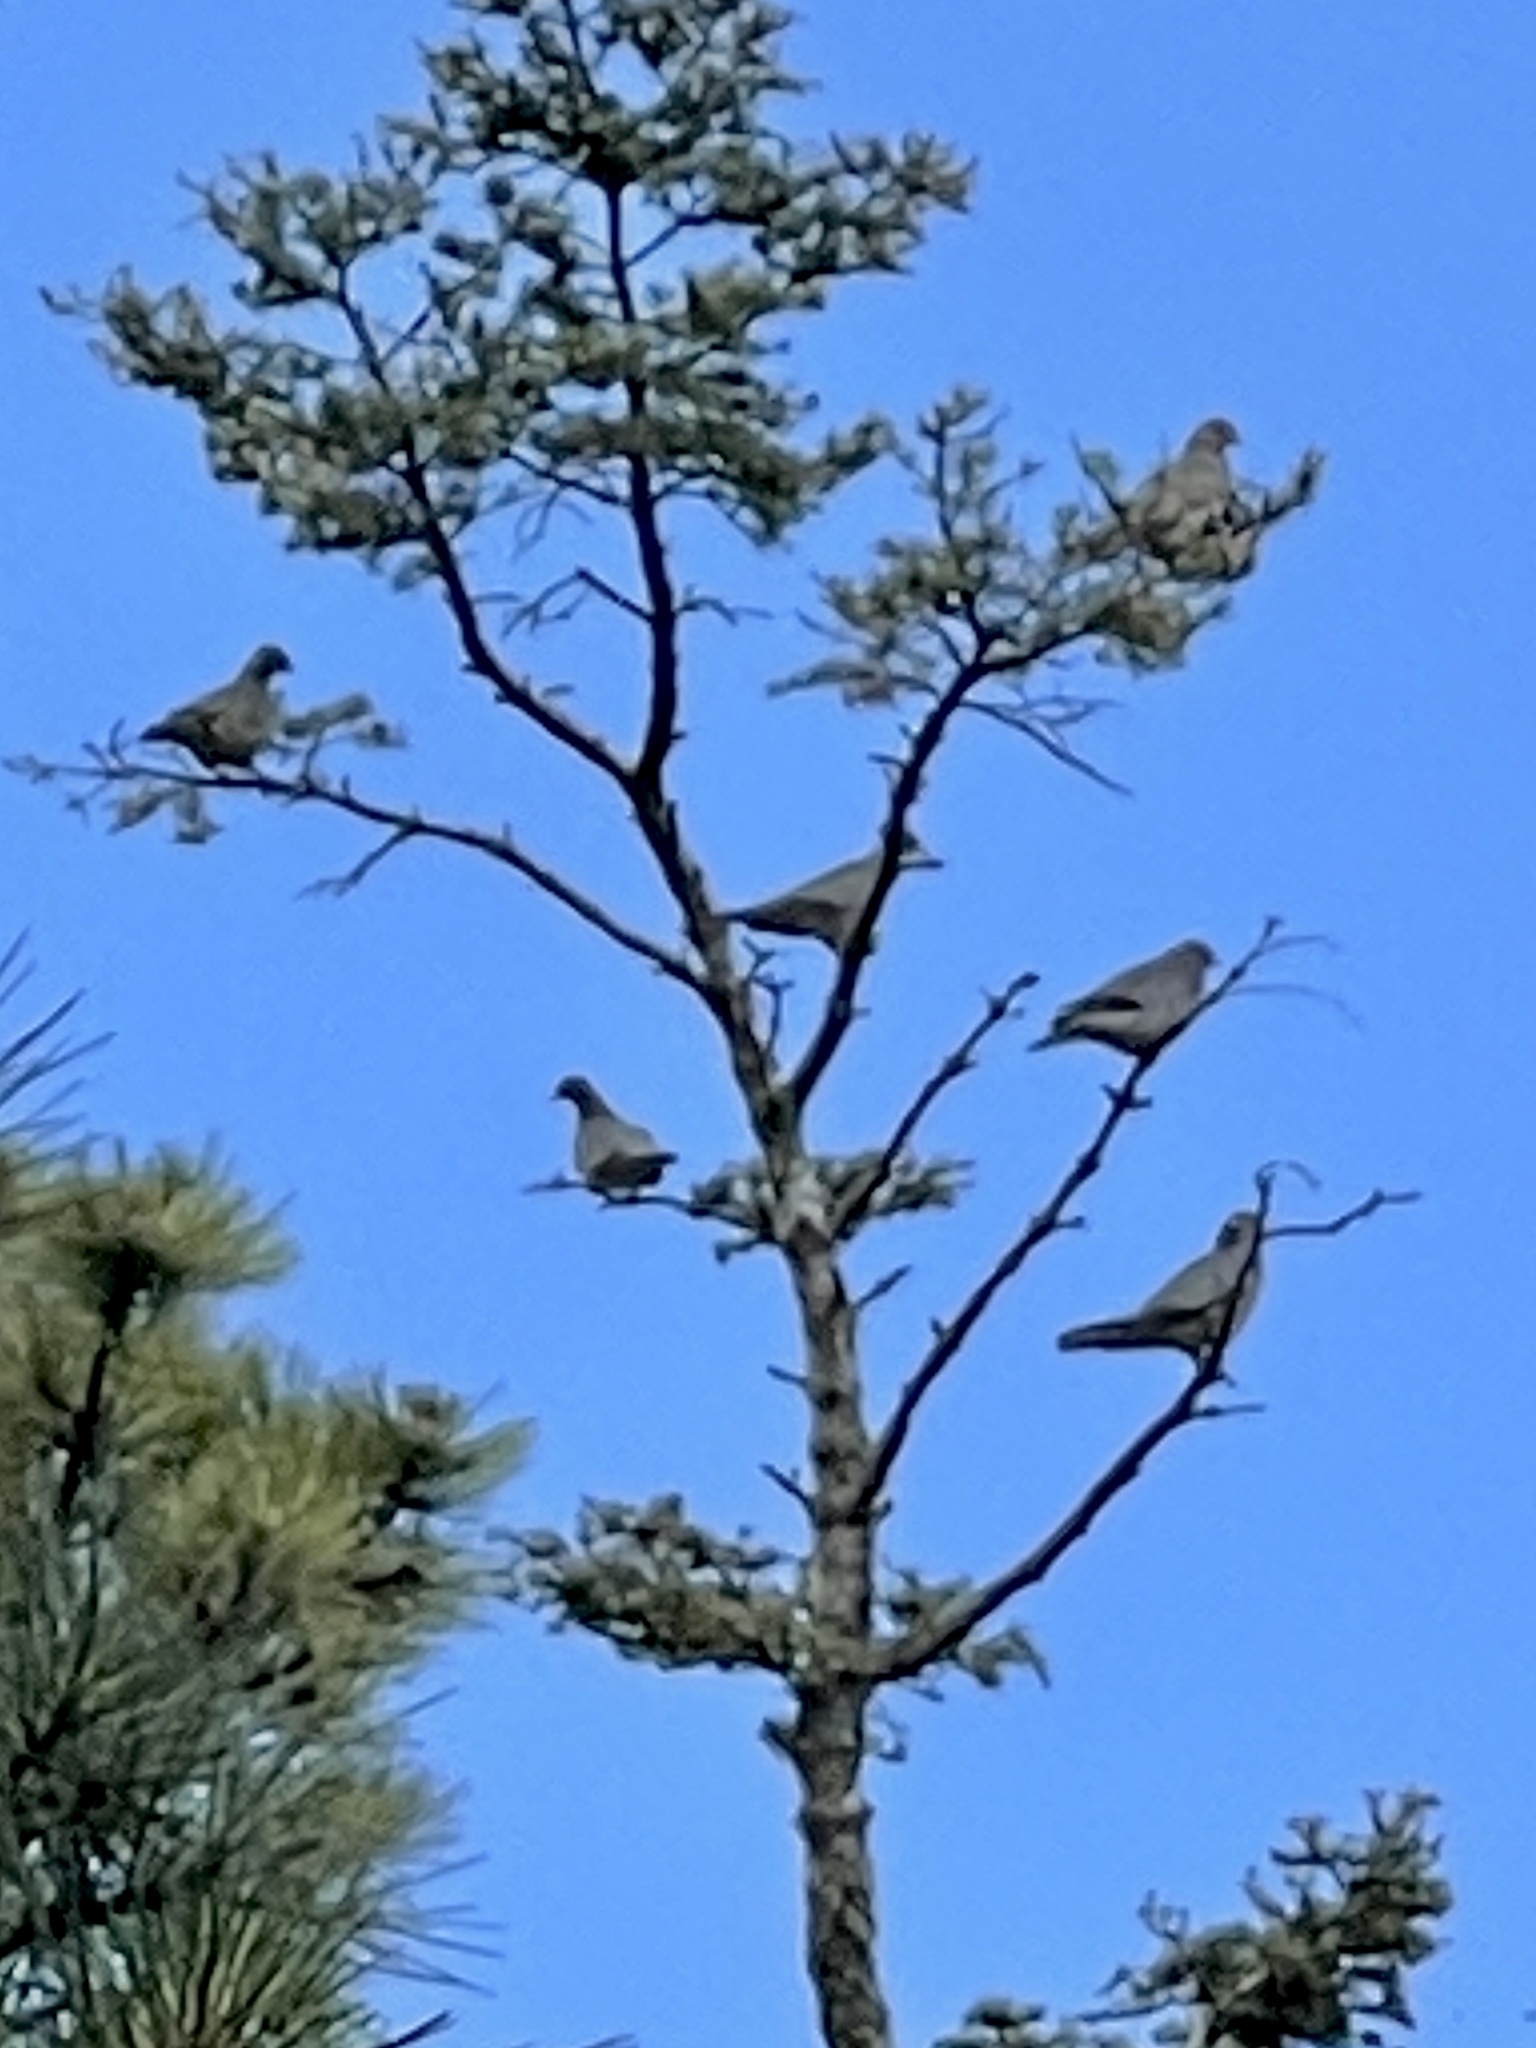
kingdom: Animalia
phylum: Chordata
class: Aves
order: Columbiformes
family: Columbidae
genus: Patagioenas
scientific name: Patagioenas fasciata
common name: Band-tailed pigeon
